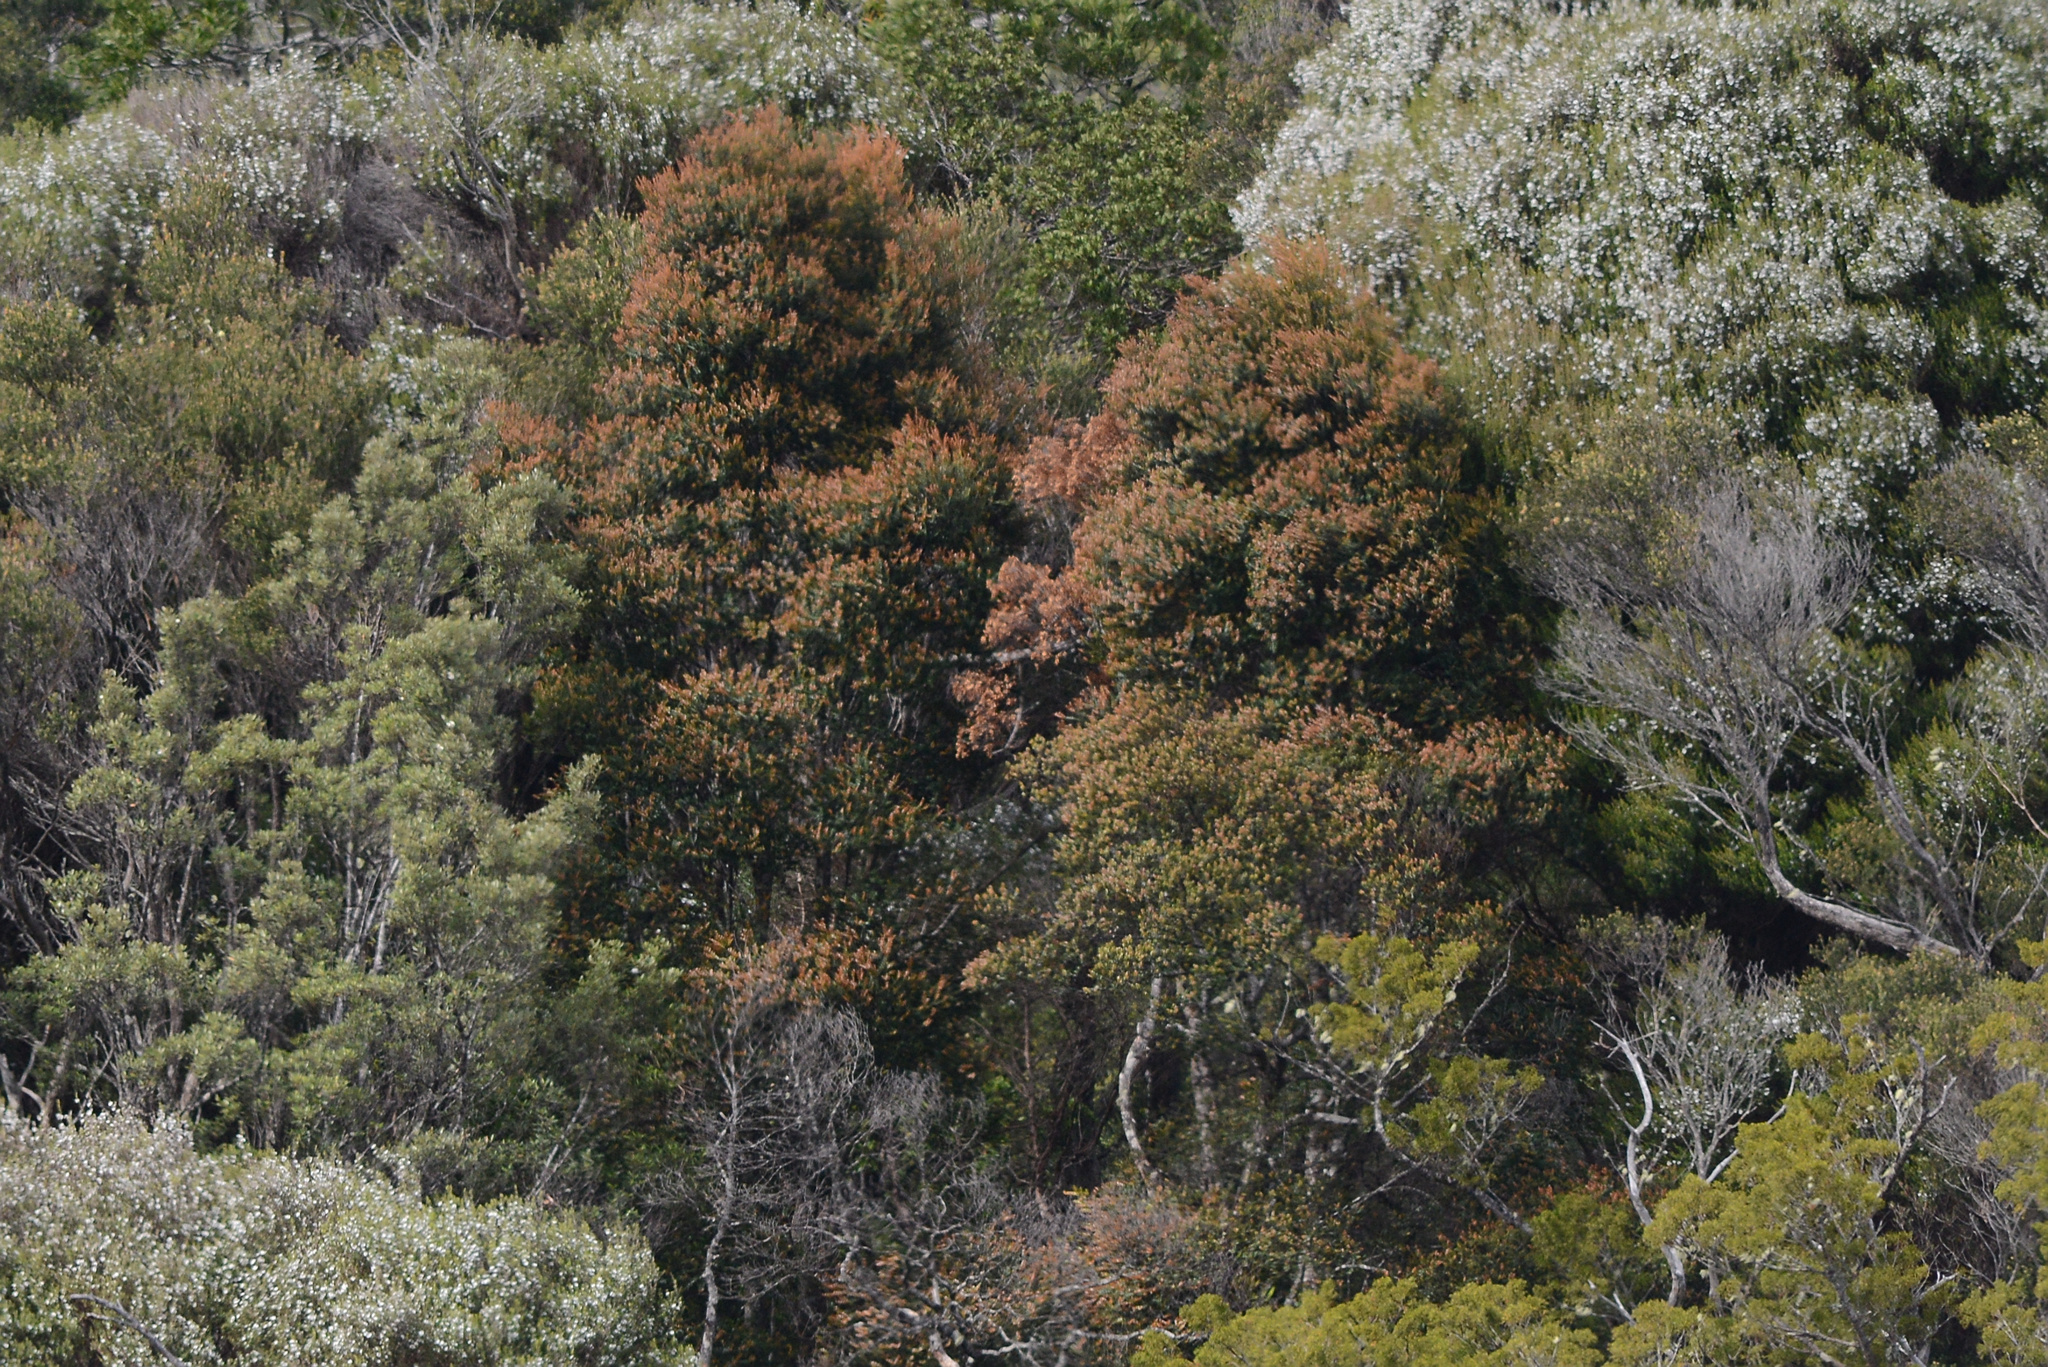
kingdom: Plantae
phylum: Tracheophyta
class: Magnoliopsida
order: Fagales
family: Nothofagaceae
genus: Nothofagus
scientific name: Nothofagus cunninghamii
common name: Myrtle beech
